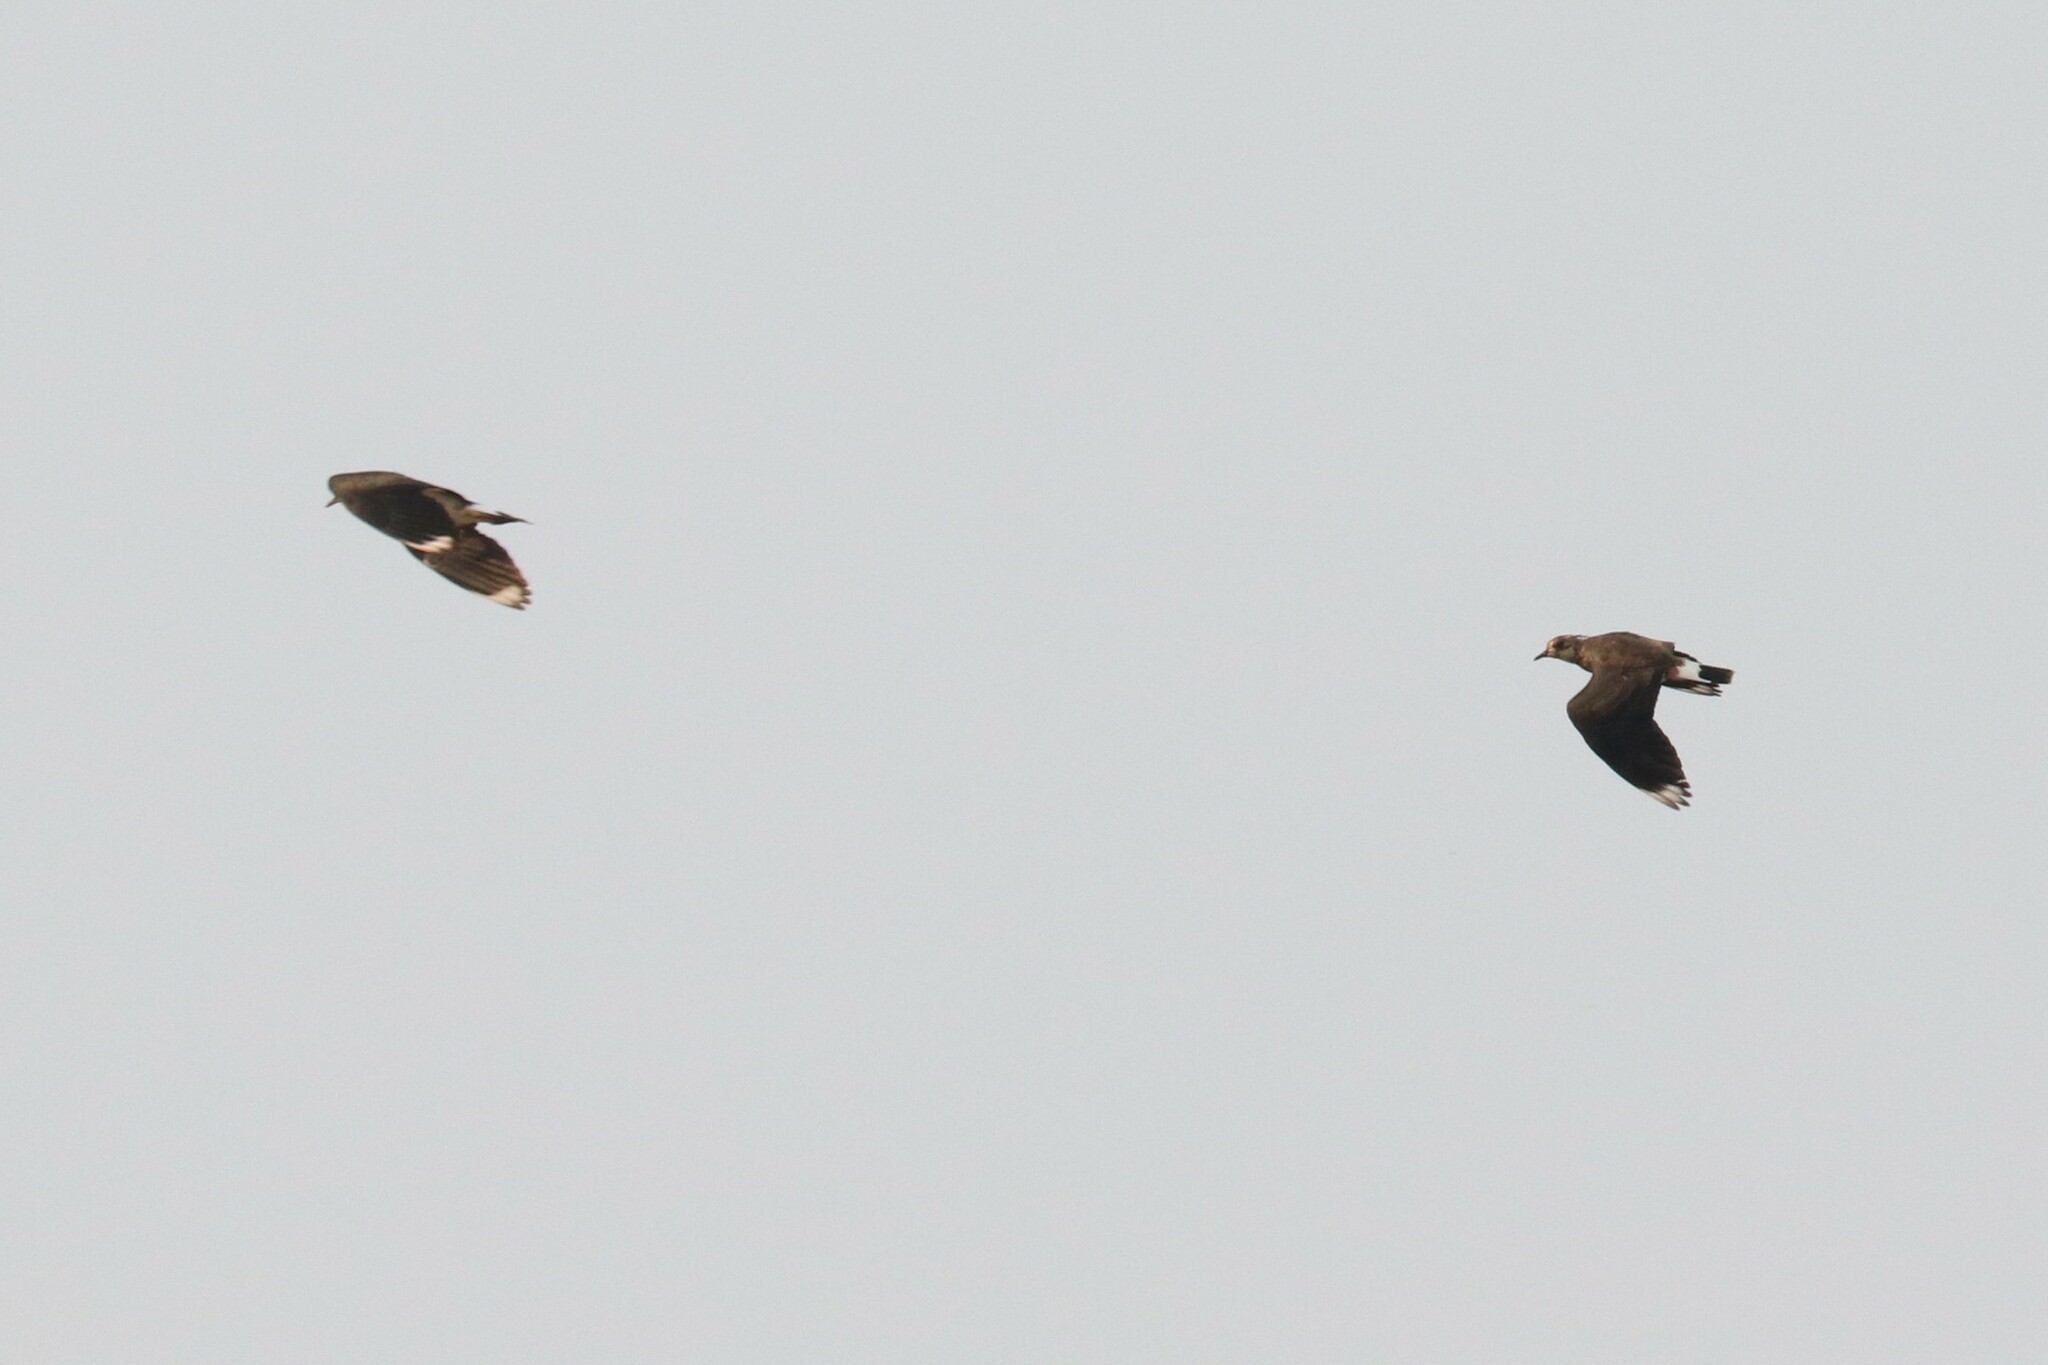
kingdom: Animalia
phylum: Chordata
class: Aves
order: Charadriiformes
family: Charadriidae
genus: Vanellus
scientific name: Vanellus vanellus
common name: Northern lapwing
